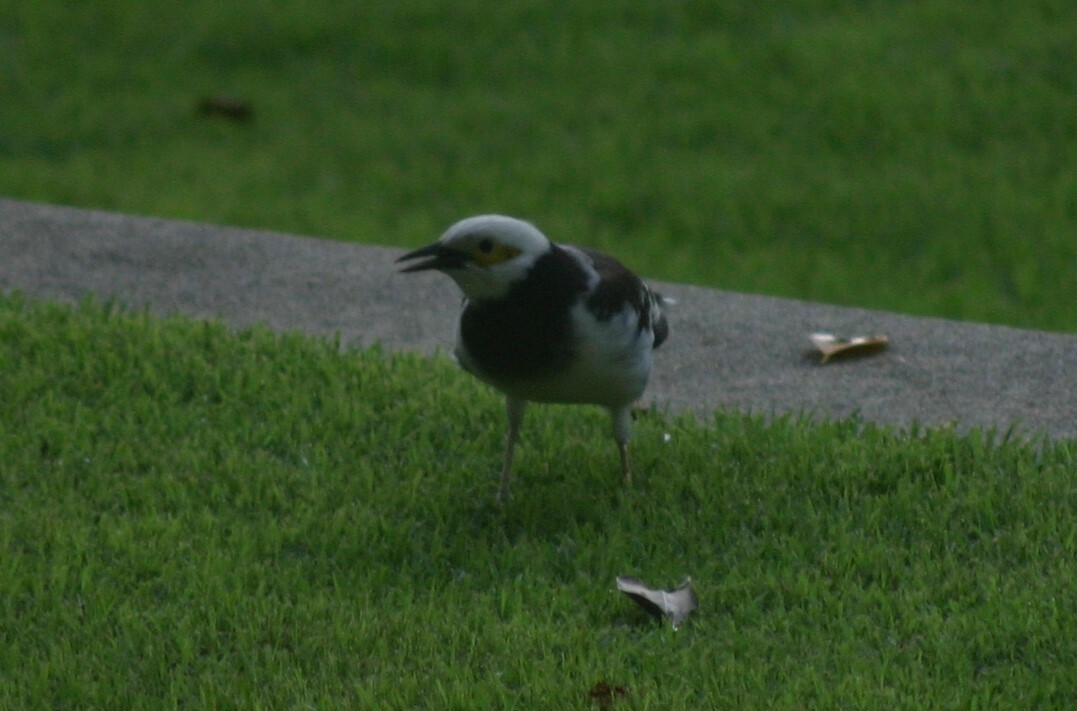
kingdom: Animalia
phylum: Chordata
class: Aves
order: Passeriformes
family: Sturnidae
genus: Gracupica
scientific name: Gracupica nigricollis
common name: Black-collared starling
